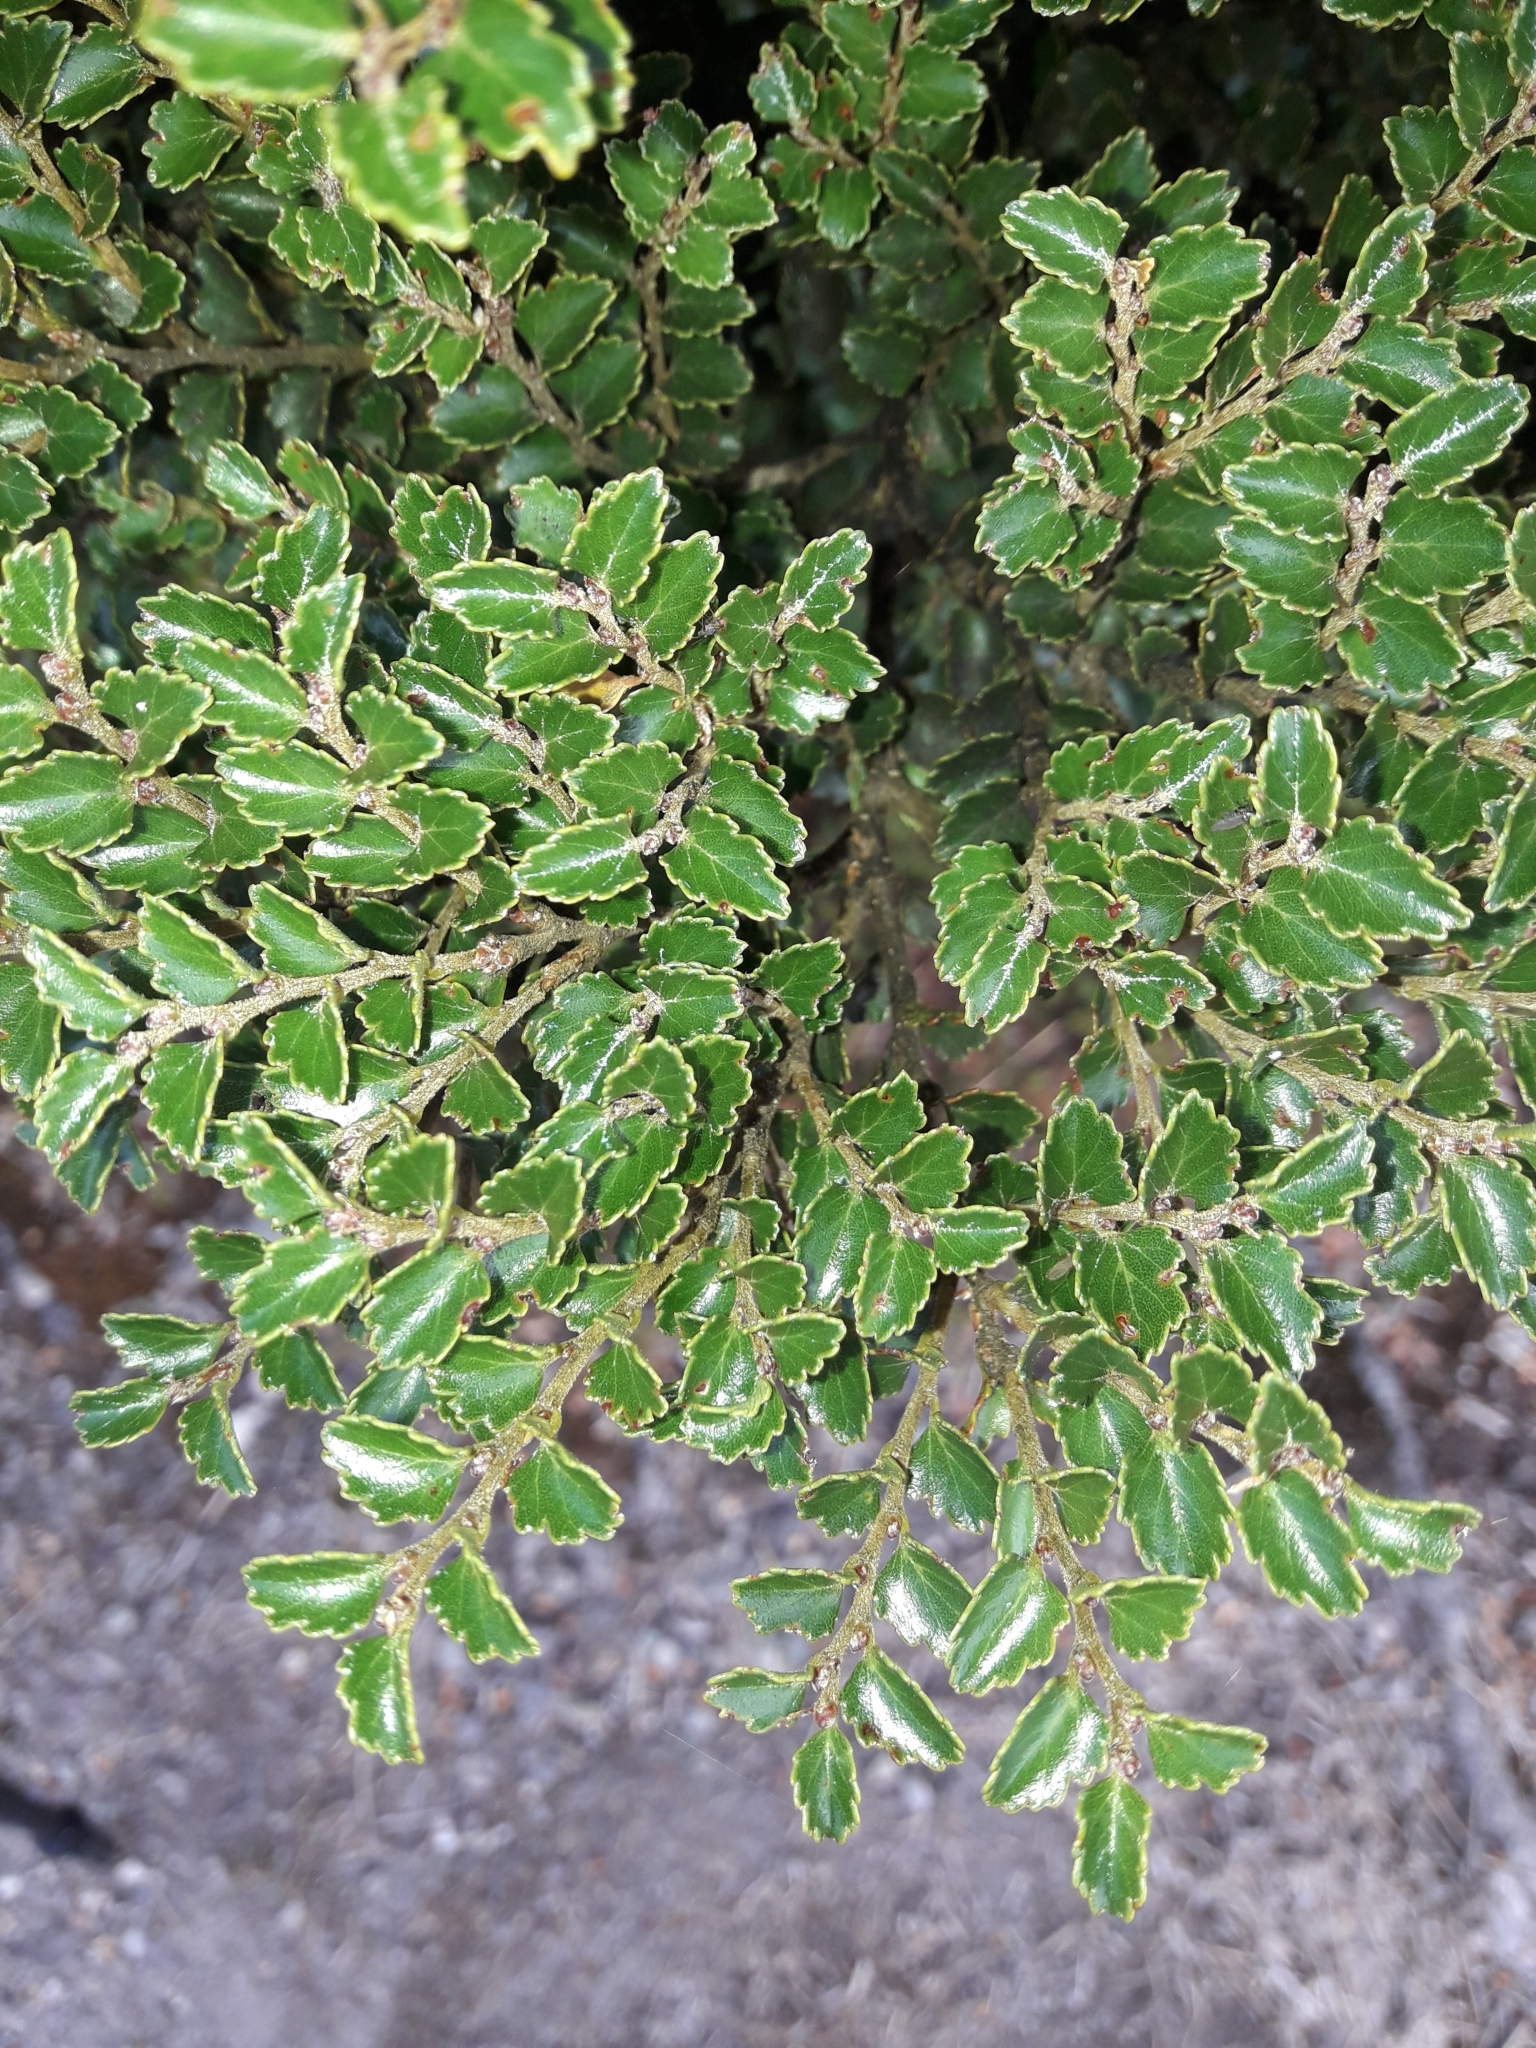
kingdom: Plantae
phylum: Tracheophyta
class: Magnoliopsida
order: Fagales
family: Nothofagaceae
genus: Nothofagus
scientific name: Nothofagus menziesii
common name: Silver beech
